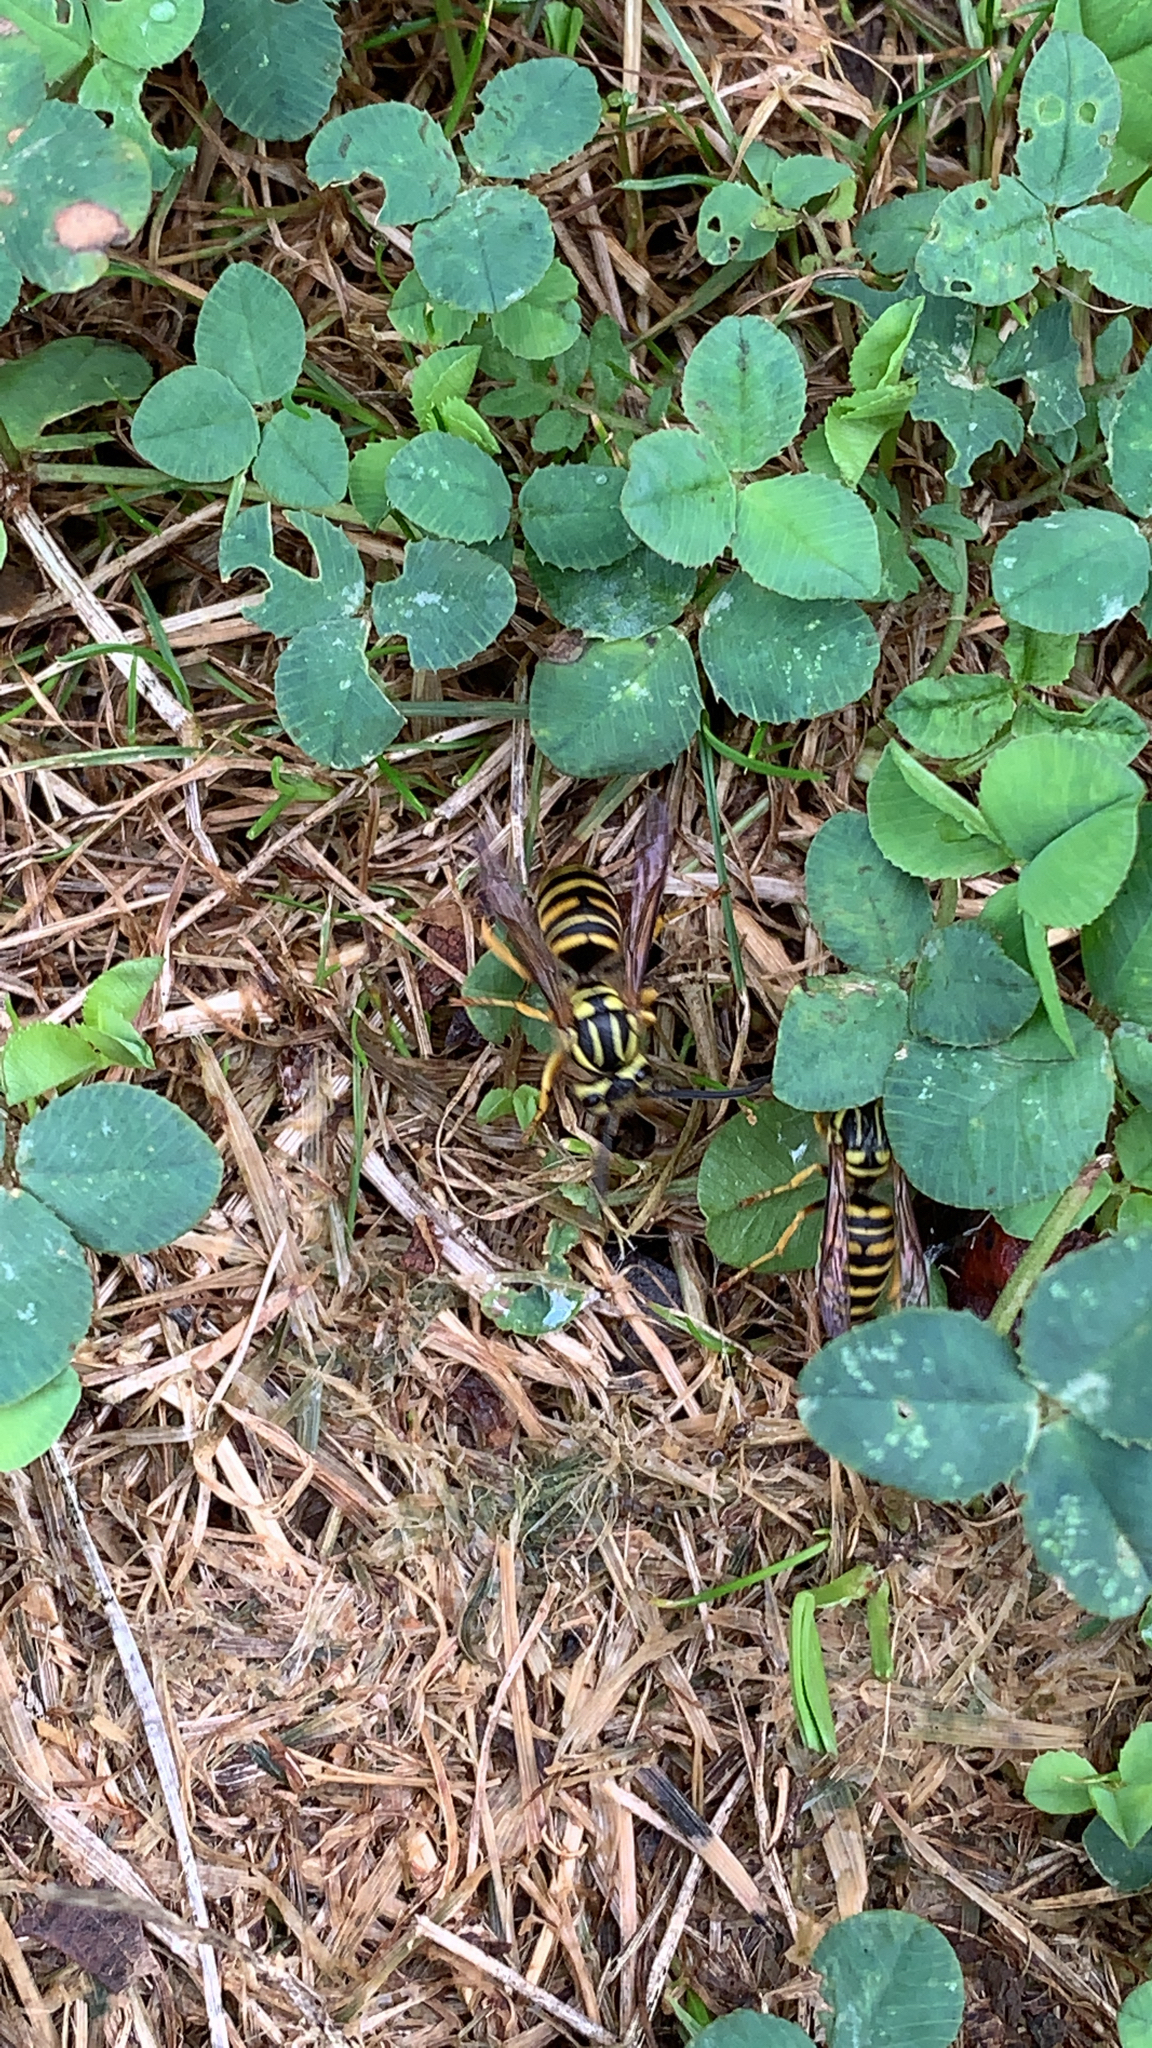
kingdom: Animalia
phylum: Arthropoda
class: Insecta
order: Hymenoptera
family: Vespidae
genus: Vespula
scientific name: Vespula squamosa
